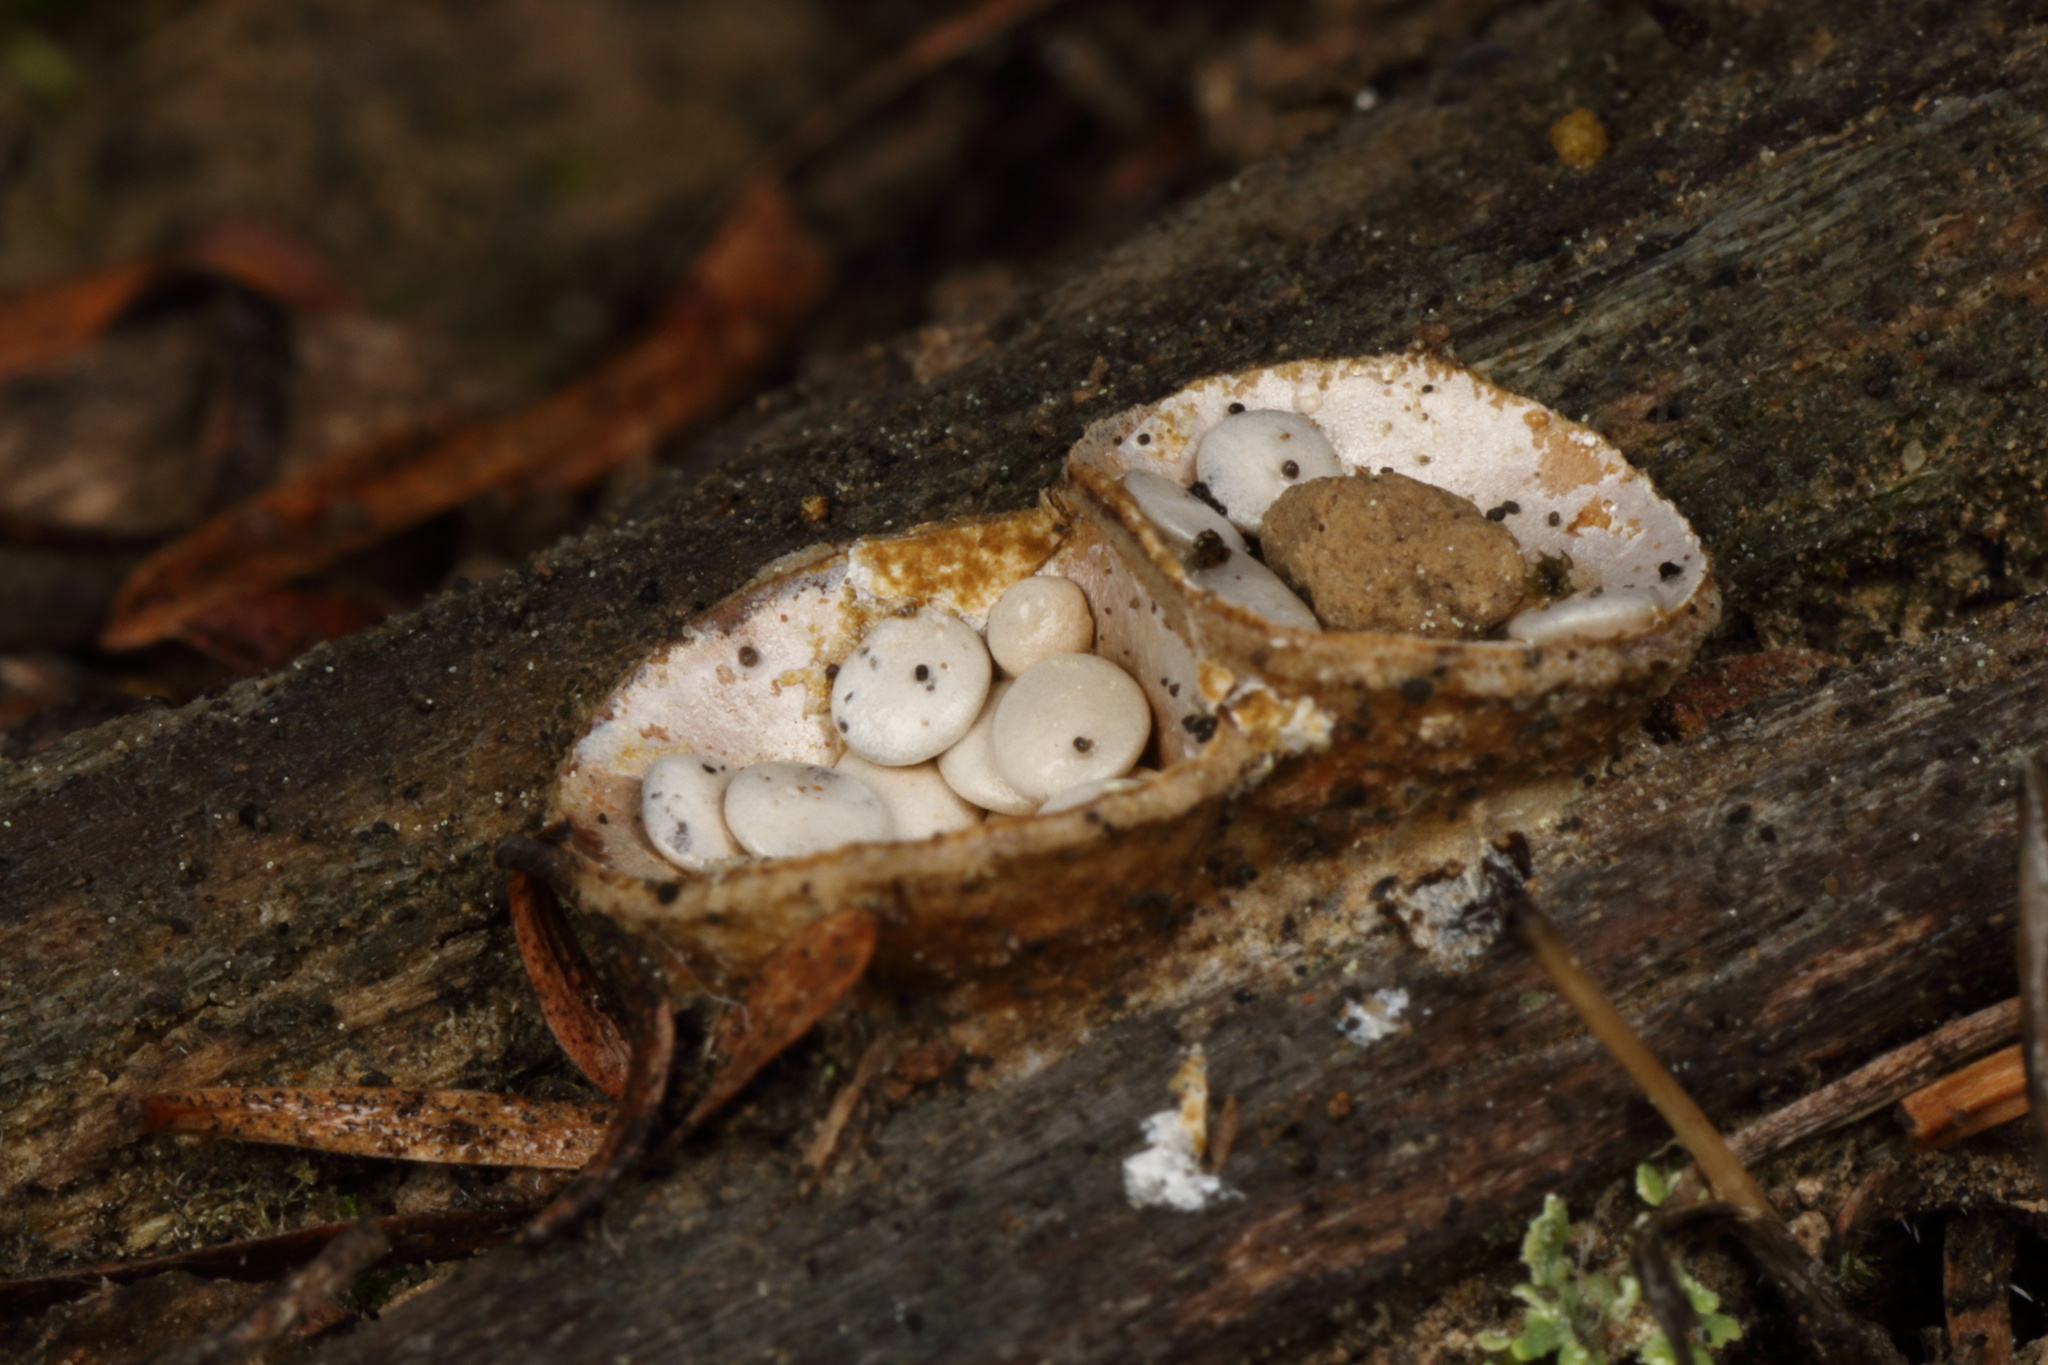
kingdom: Fungi
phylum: Basidiomycota
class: Agaricomycetes
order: Agaricales
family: Agaricaceae
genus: Cyathus
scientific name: Cyathus olla
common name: Field bird's nest
